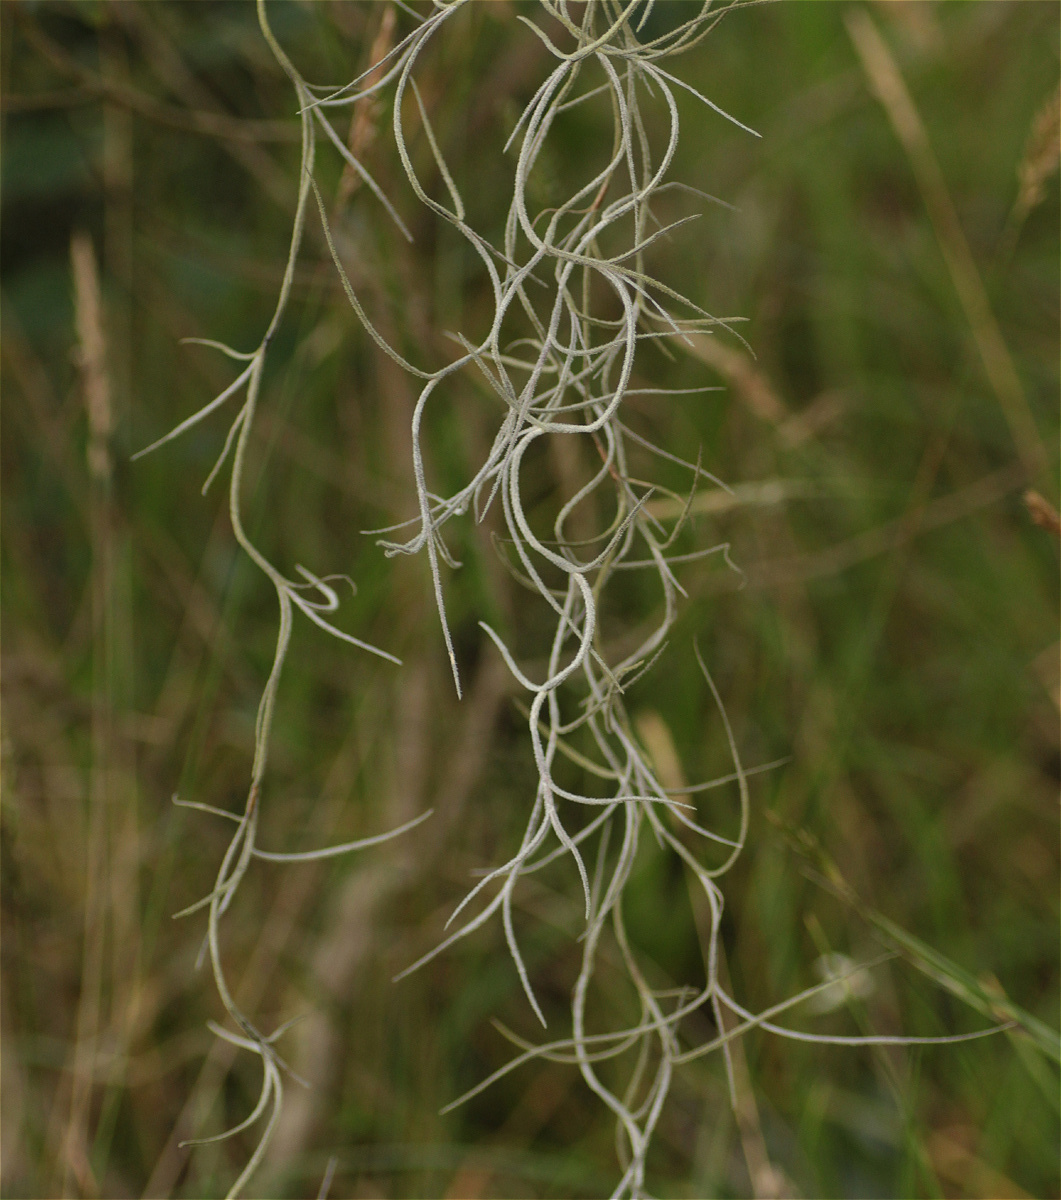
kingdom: Plantae
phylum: Tracheophyta
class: Liliopsida
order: Poales
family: Bromeliaceae
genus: Tillandsia
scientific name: Tillandsia usneoides
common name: Spanish moss
